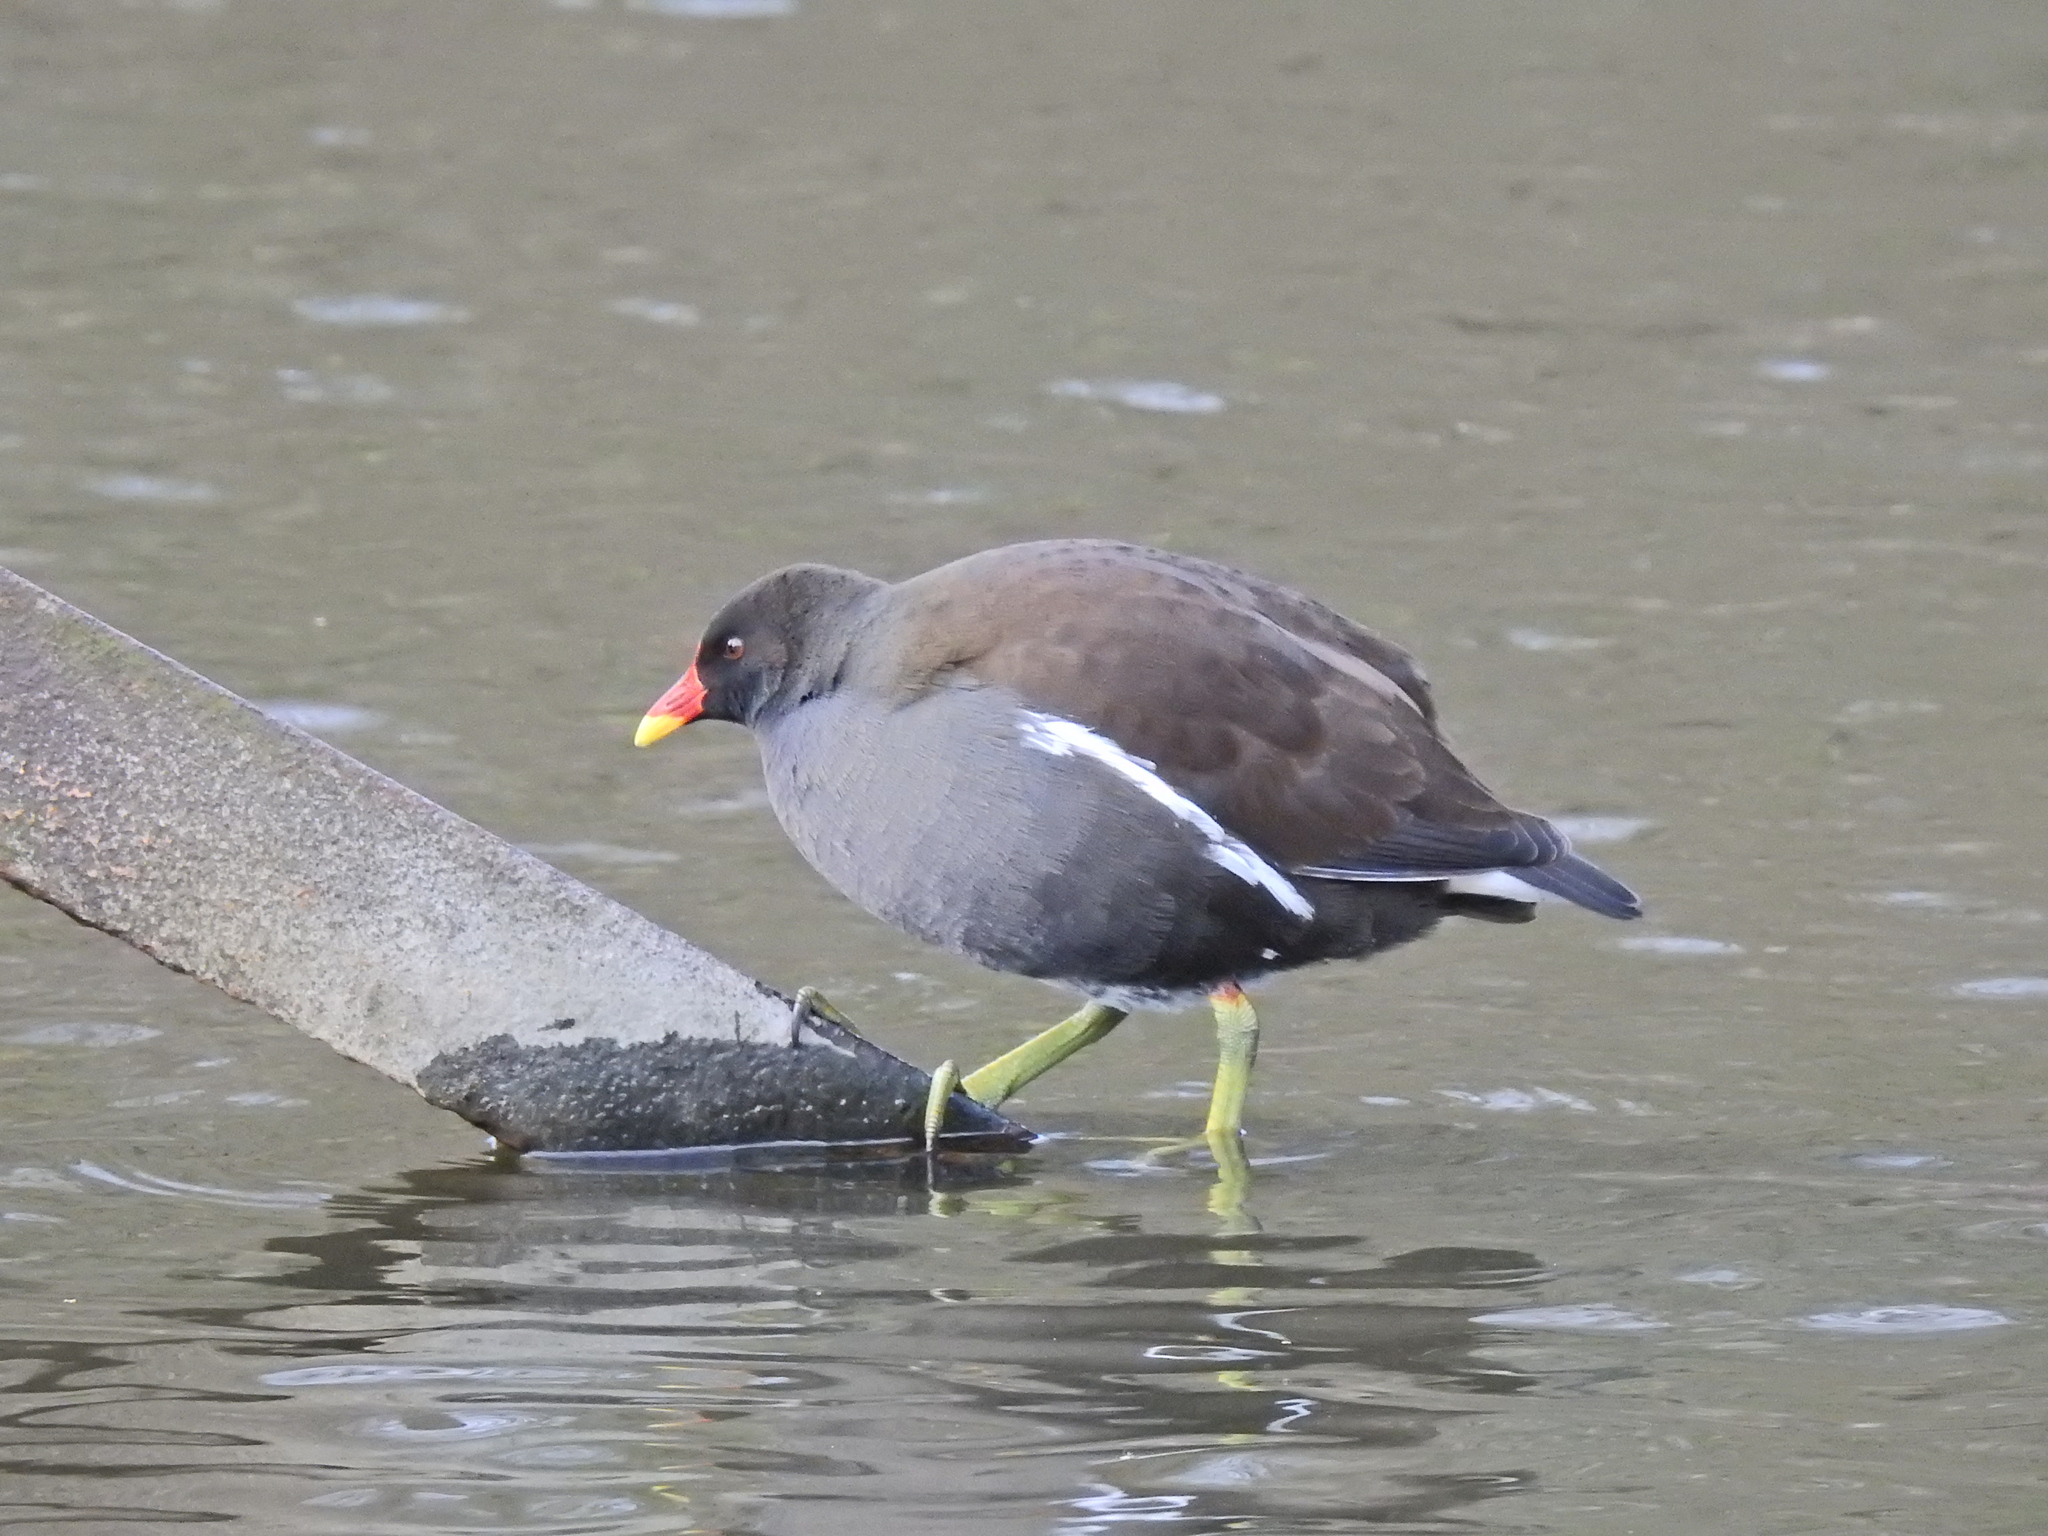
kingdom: Animalia
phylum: Chordata
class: Aves
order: Gruiformes
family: Rallidae
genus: Gallinula
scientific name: Gallinula chloropus
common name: Common moorhen
